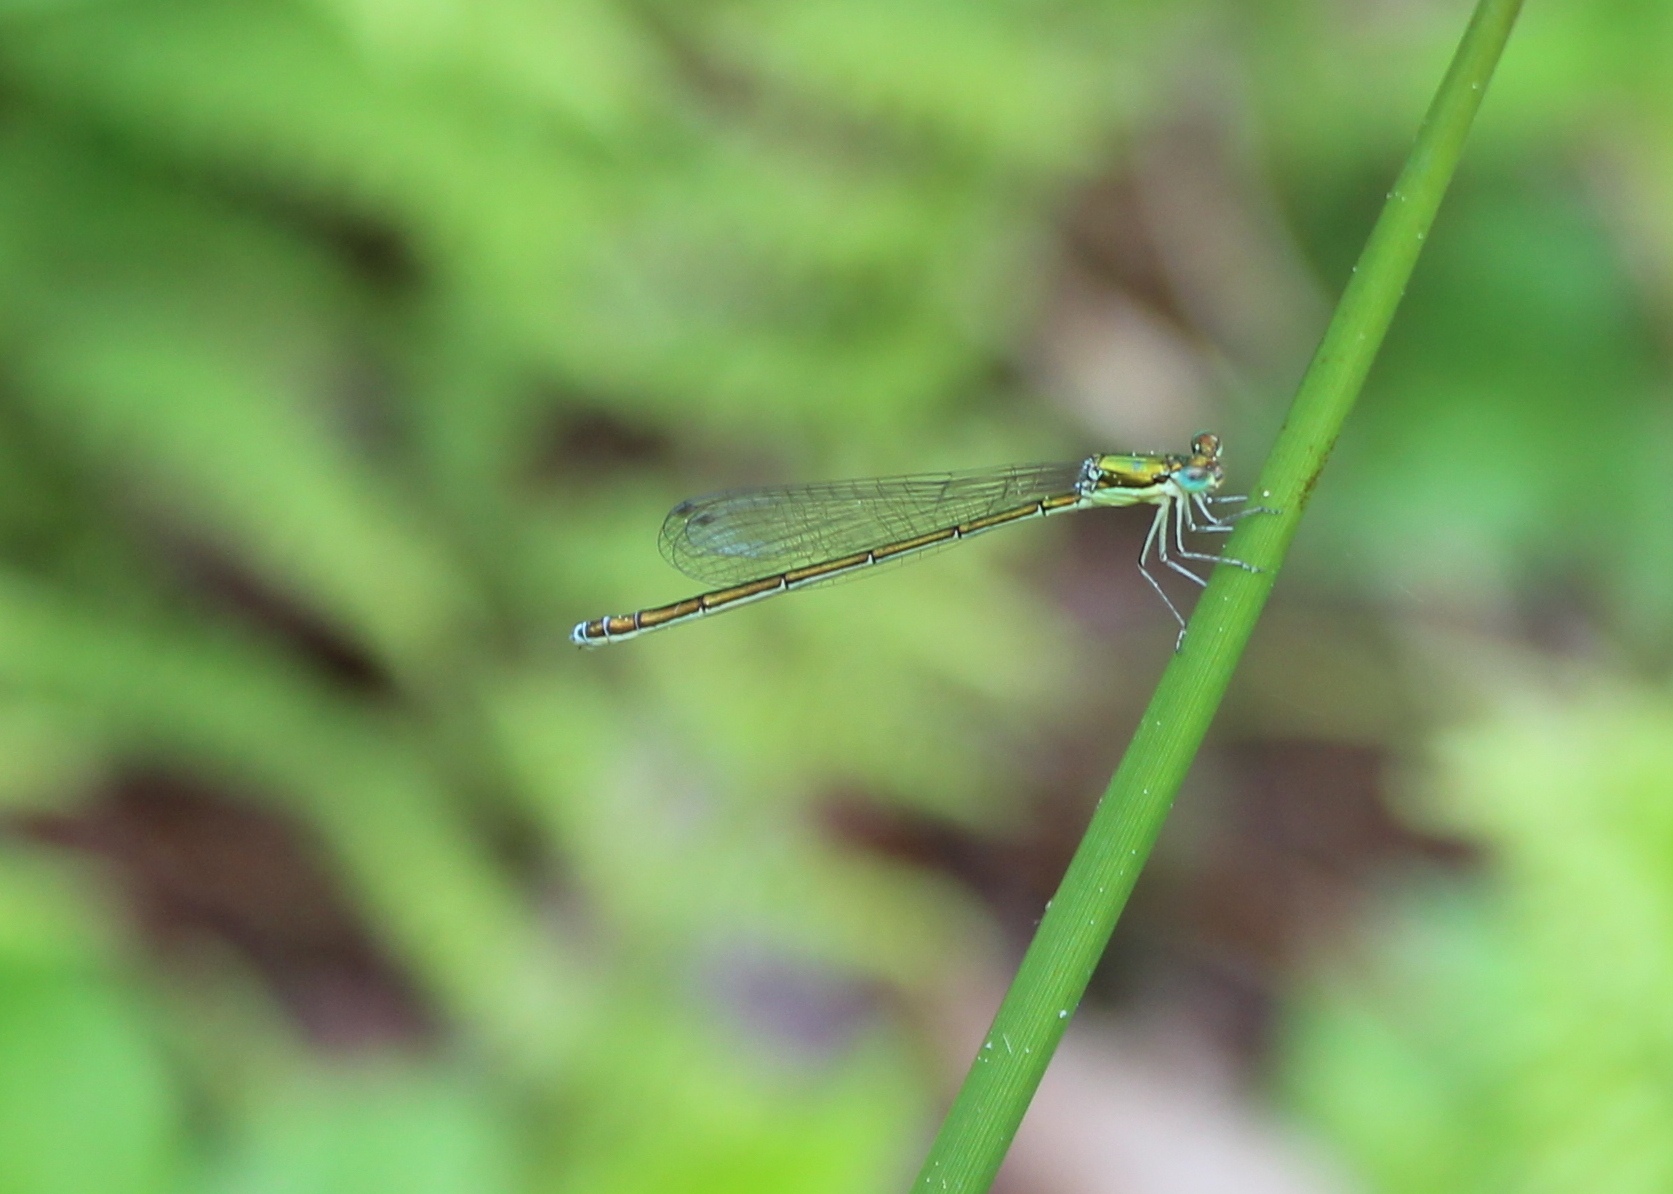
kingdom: Animalia
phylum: Arthropoda
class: Insecta
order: Odonata
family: Coenagrionidae
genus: Nehalennia
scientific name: Nehalennia irene
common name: Sedge sprite
